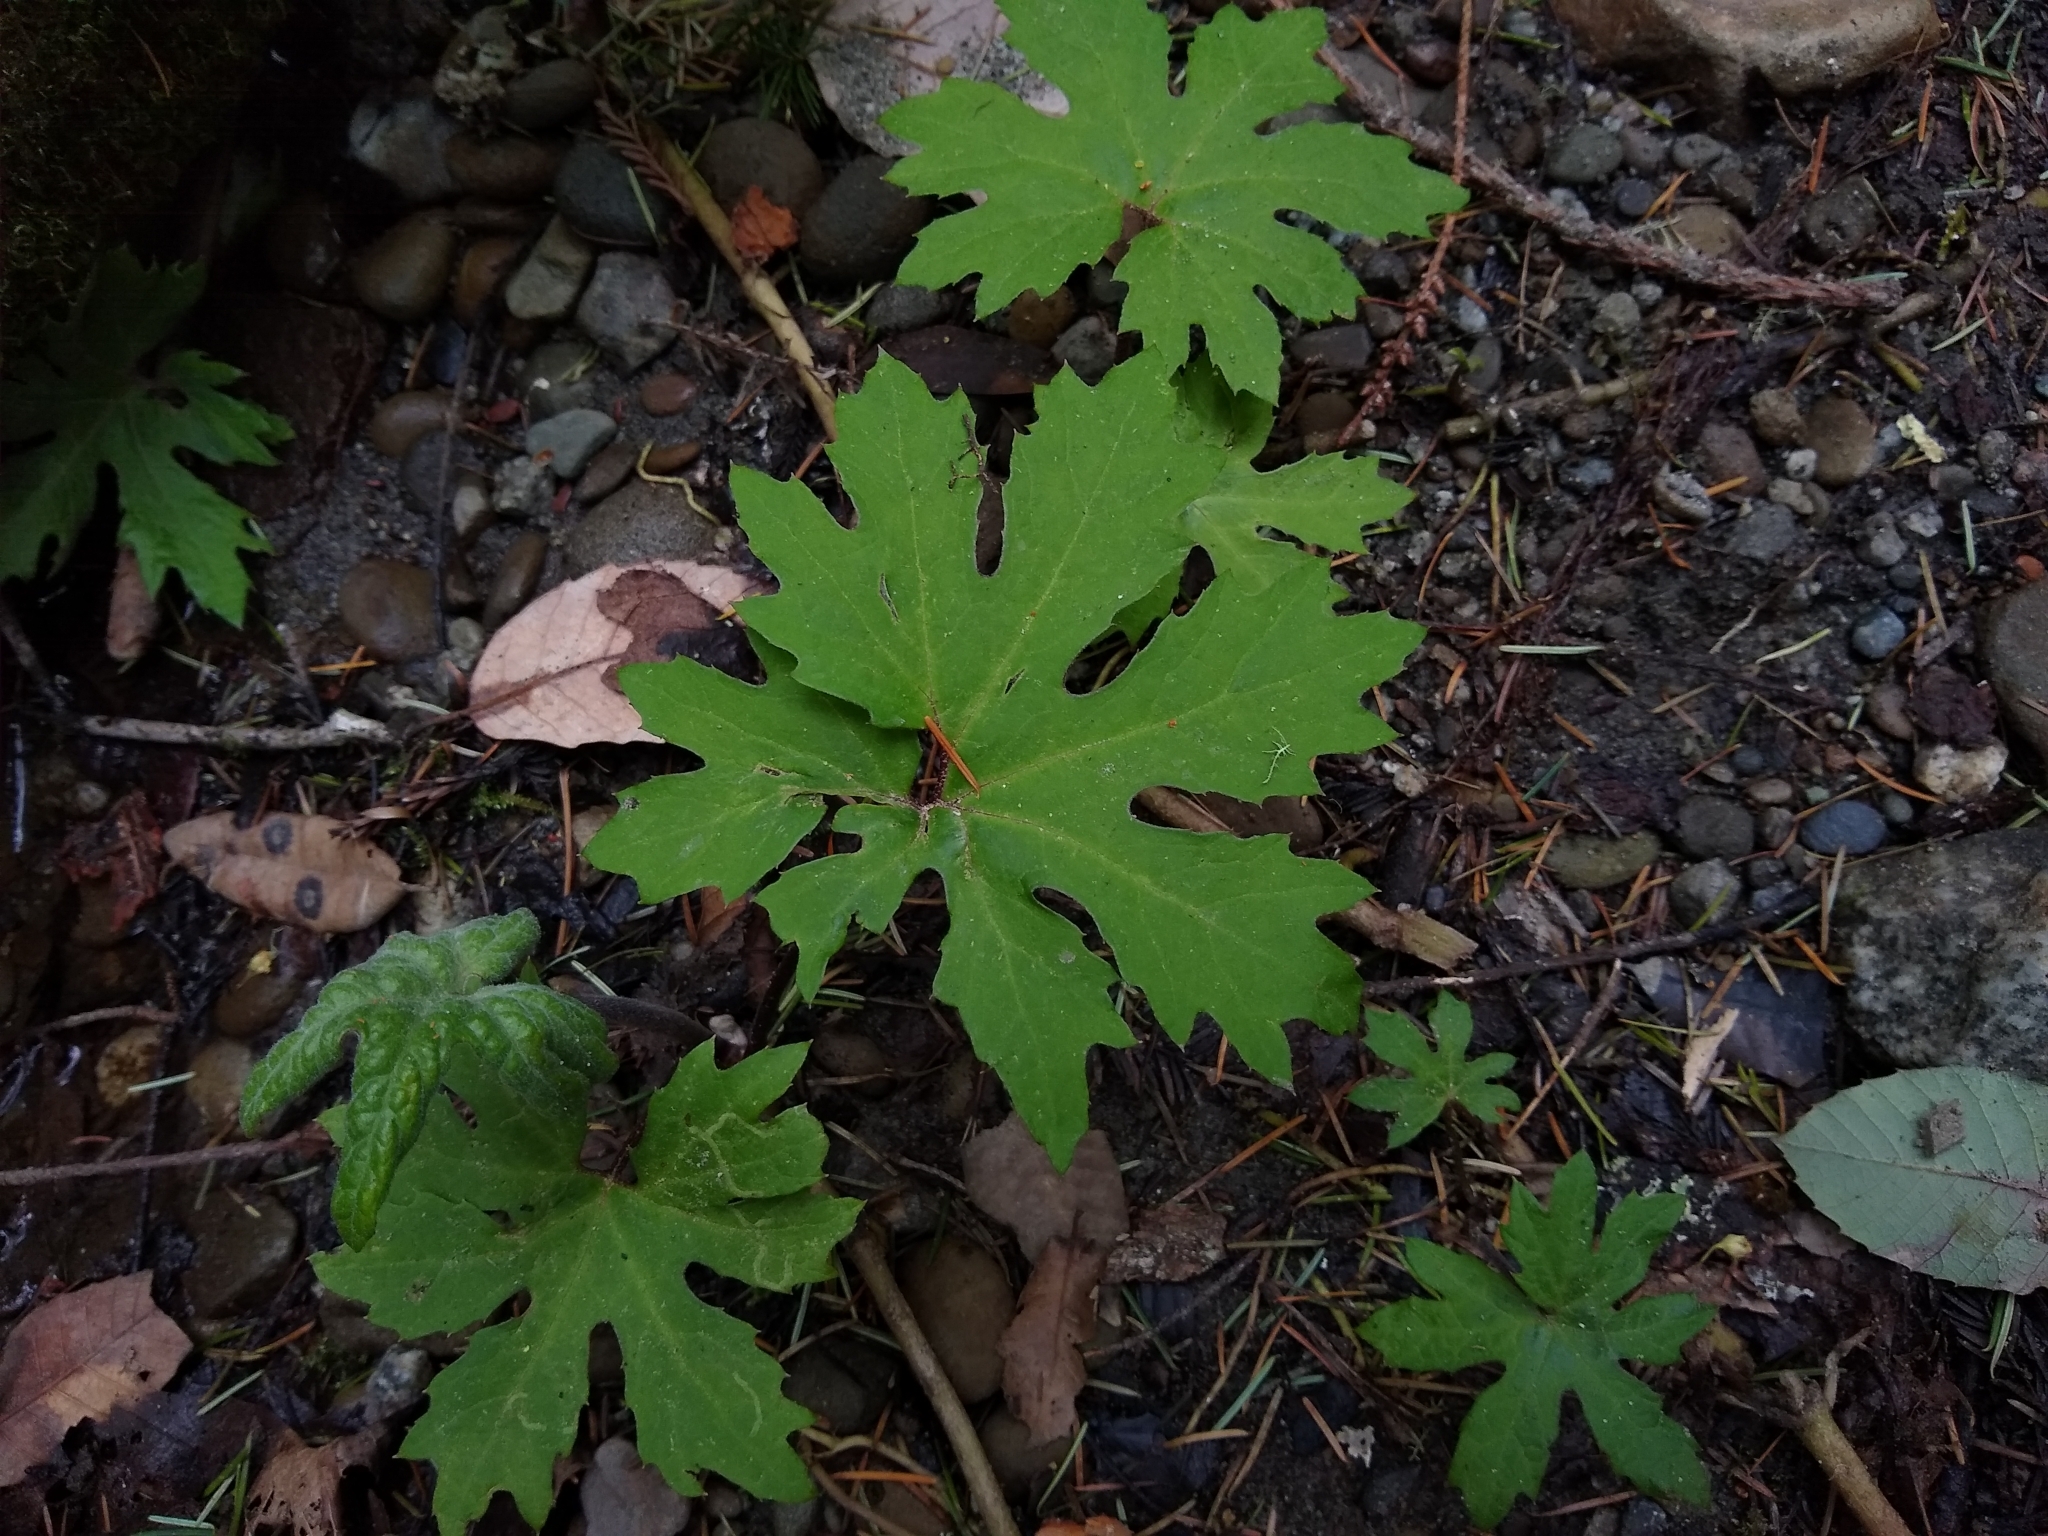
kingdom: Plantae
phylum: Tracheophyta
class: Magnoliopsida
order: Asterales
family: Asteraceae
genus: Petasites
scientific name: Petasites frigidus
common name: Arctic butterbur
